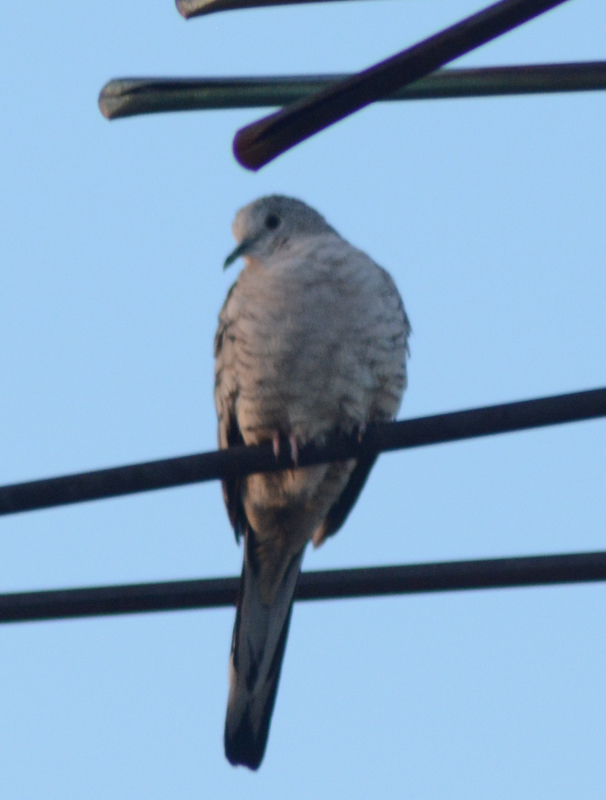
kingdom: Animalia
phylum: Chordata
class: Aves
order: Columbiformes
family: Columbidae
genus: Columbina
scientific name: Columbina inca
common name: Inca dove
